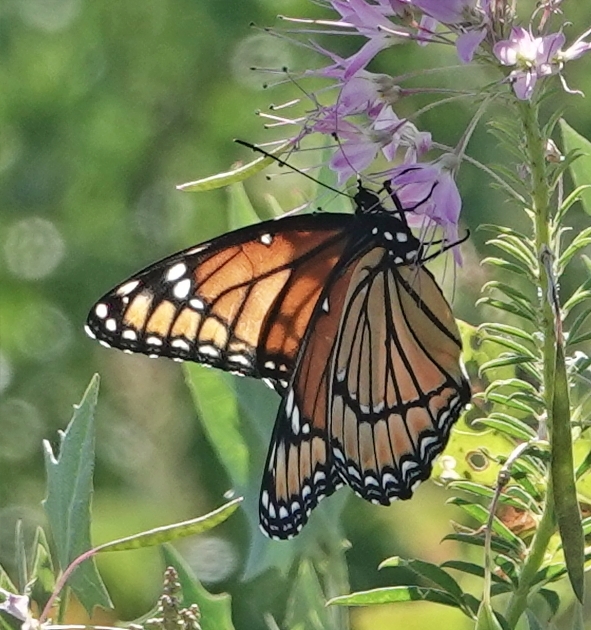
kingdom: Animalia
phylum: Arthropoda
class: Insecta
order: Lepidoptera
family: Nymphalidae
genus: Limenitis
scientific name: Limenitis archippus
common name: Viceroy
